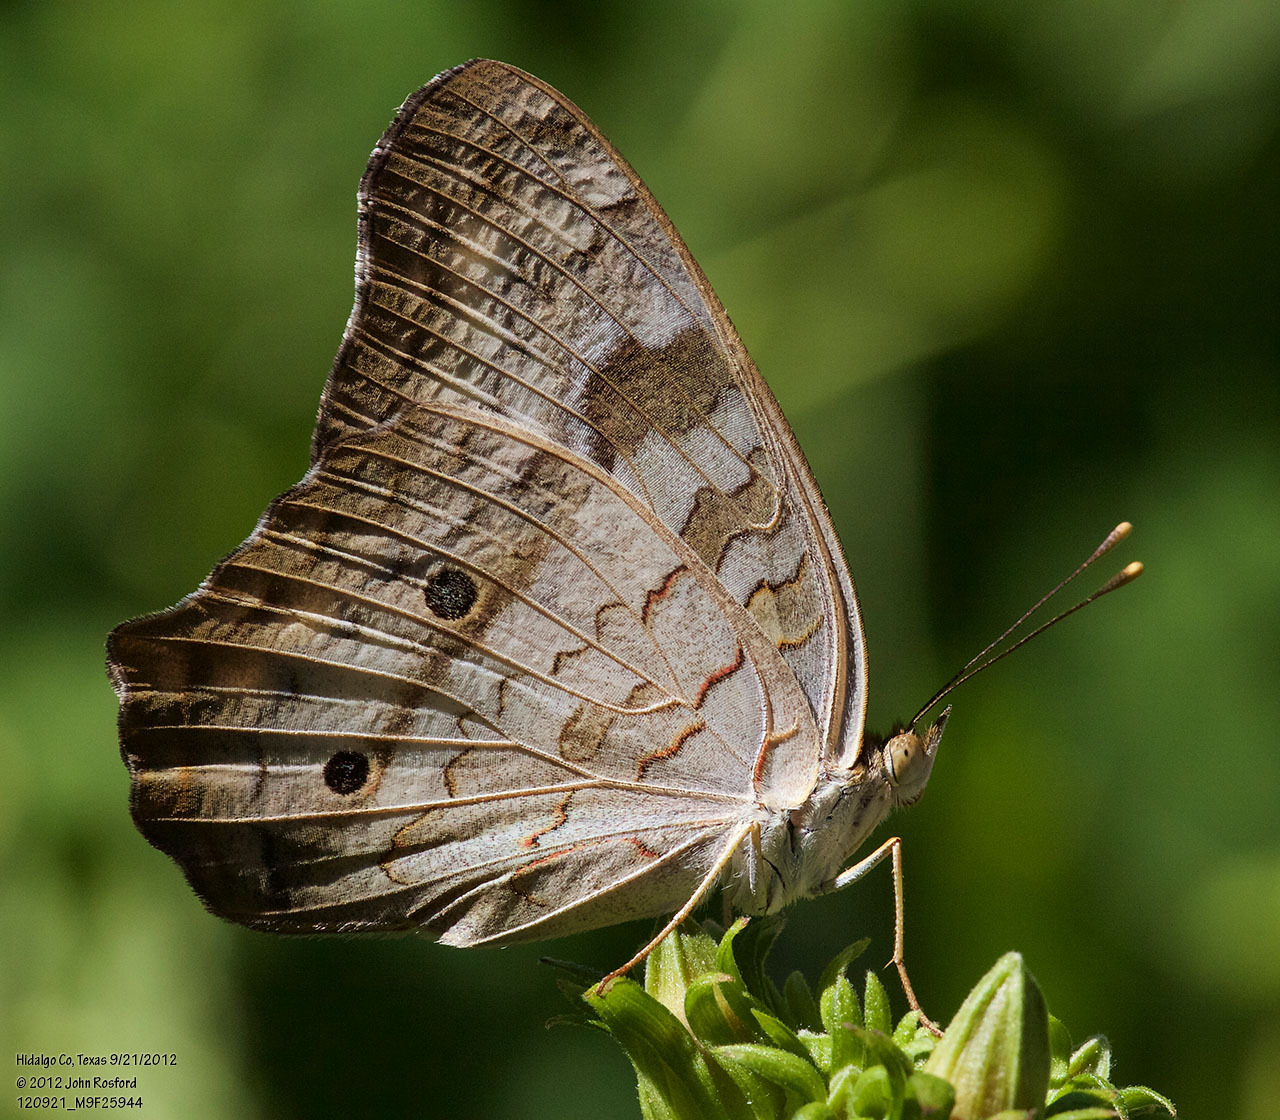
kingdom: Animalia
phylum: Arthropoda
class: Insecta
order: Lepidoptera
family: Nymphalidae
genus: Anartia
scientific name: Anartia jatrophae
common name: White peacock
